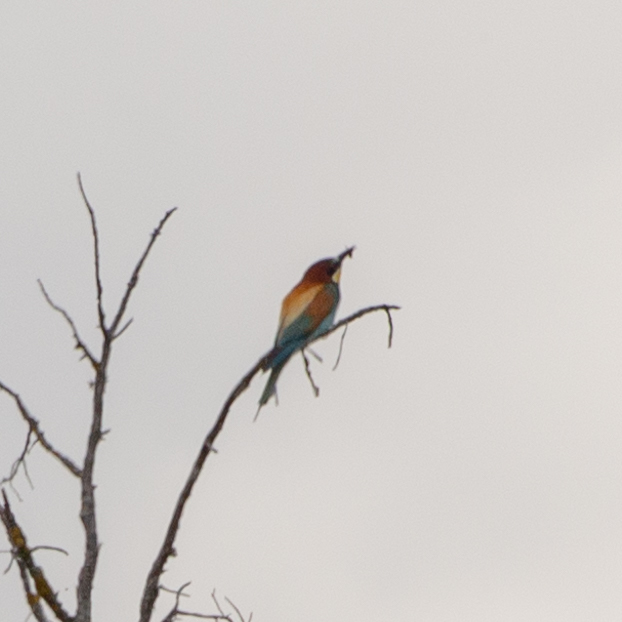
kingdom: Animalia
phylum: Chordata
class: Aves
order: Coraciiformes
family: Meropidae
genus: Merops
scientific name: Merops apiaster
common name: European bee-eater
